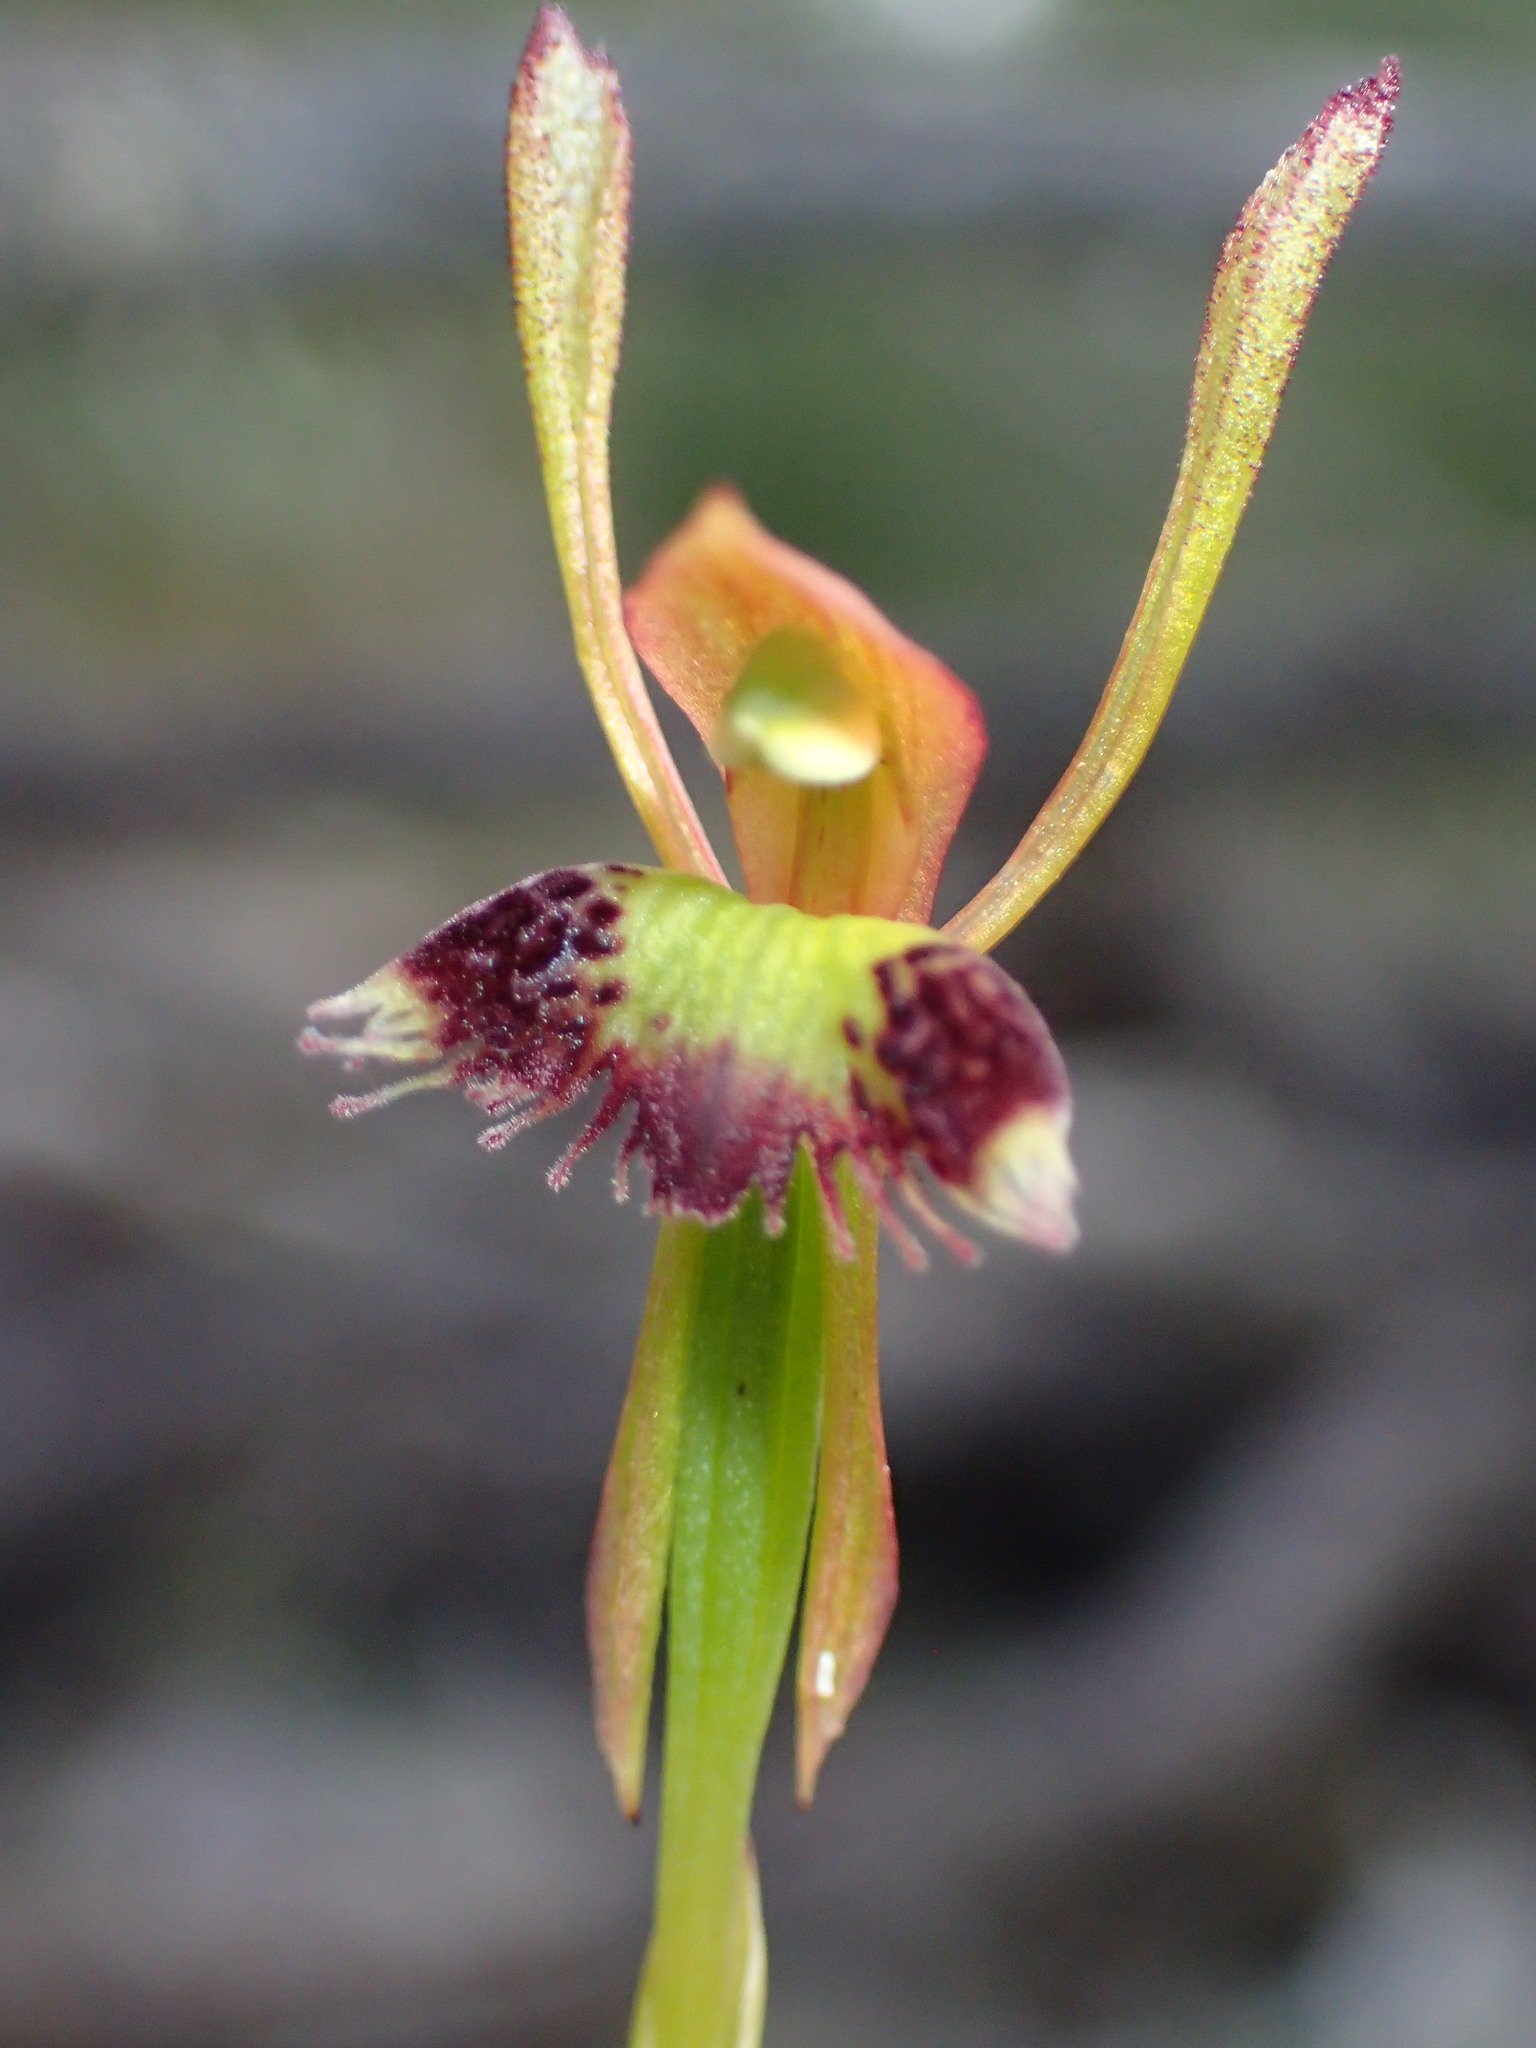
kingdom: Plantae
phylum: Tracheophyta
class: Liliopsida
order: Asparagales
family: Orchidaceae
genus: Leporella
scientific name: Leporella fimbriata
